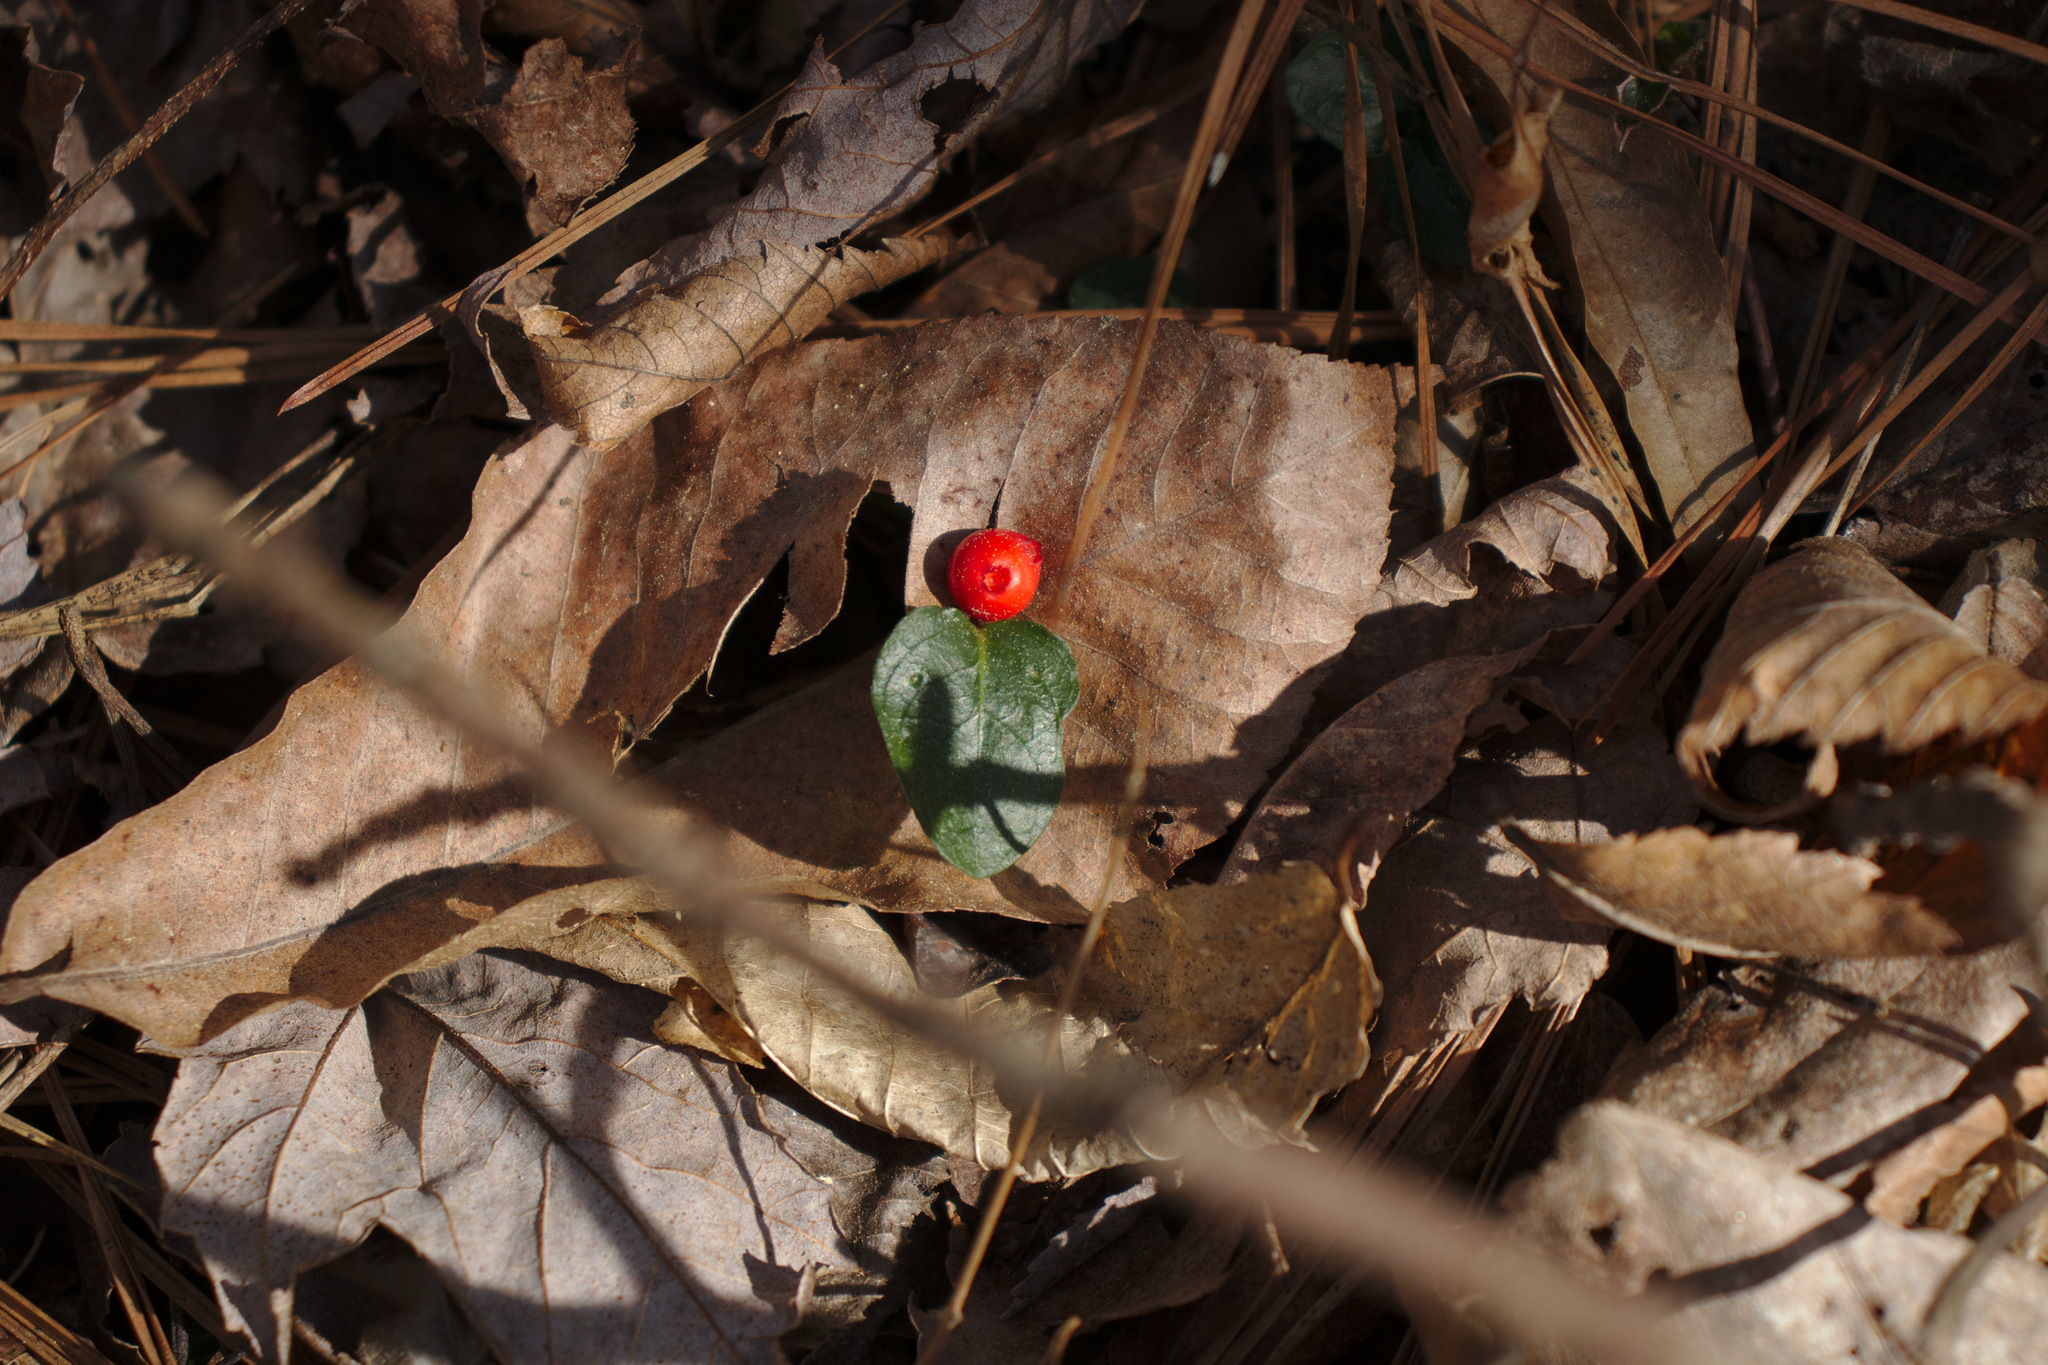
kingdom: Plantae
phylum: Tracheophyta
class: Magnoliopsida
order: Gentianales
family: Rubiaceae
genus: Mitchella
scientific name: Mitchella repens
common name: Partridge-berry
